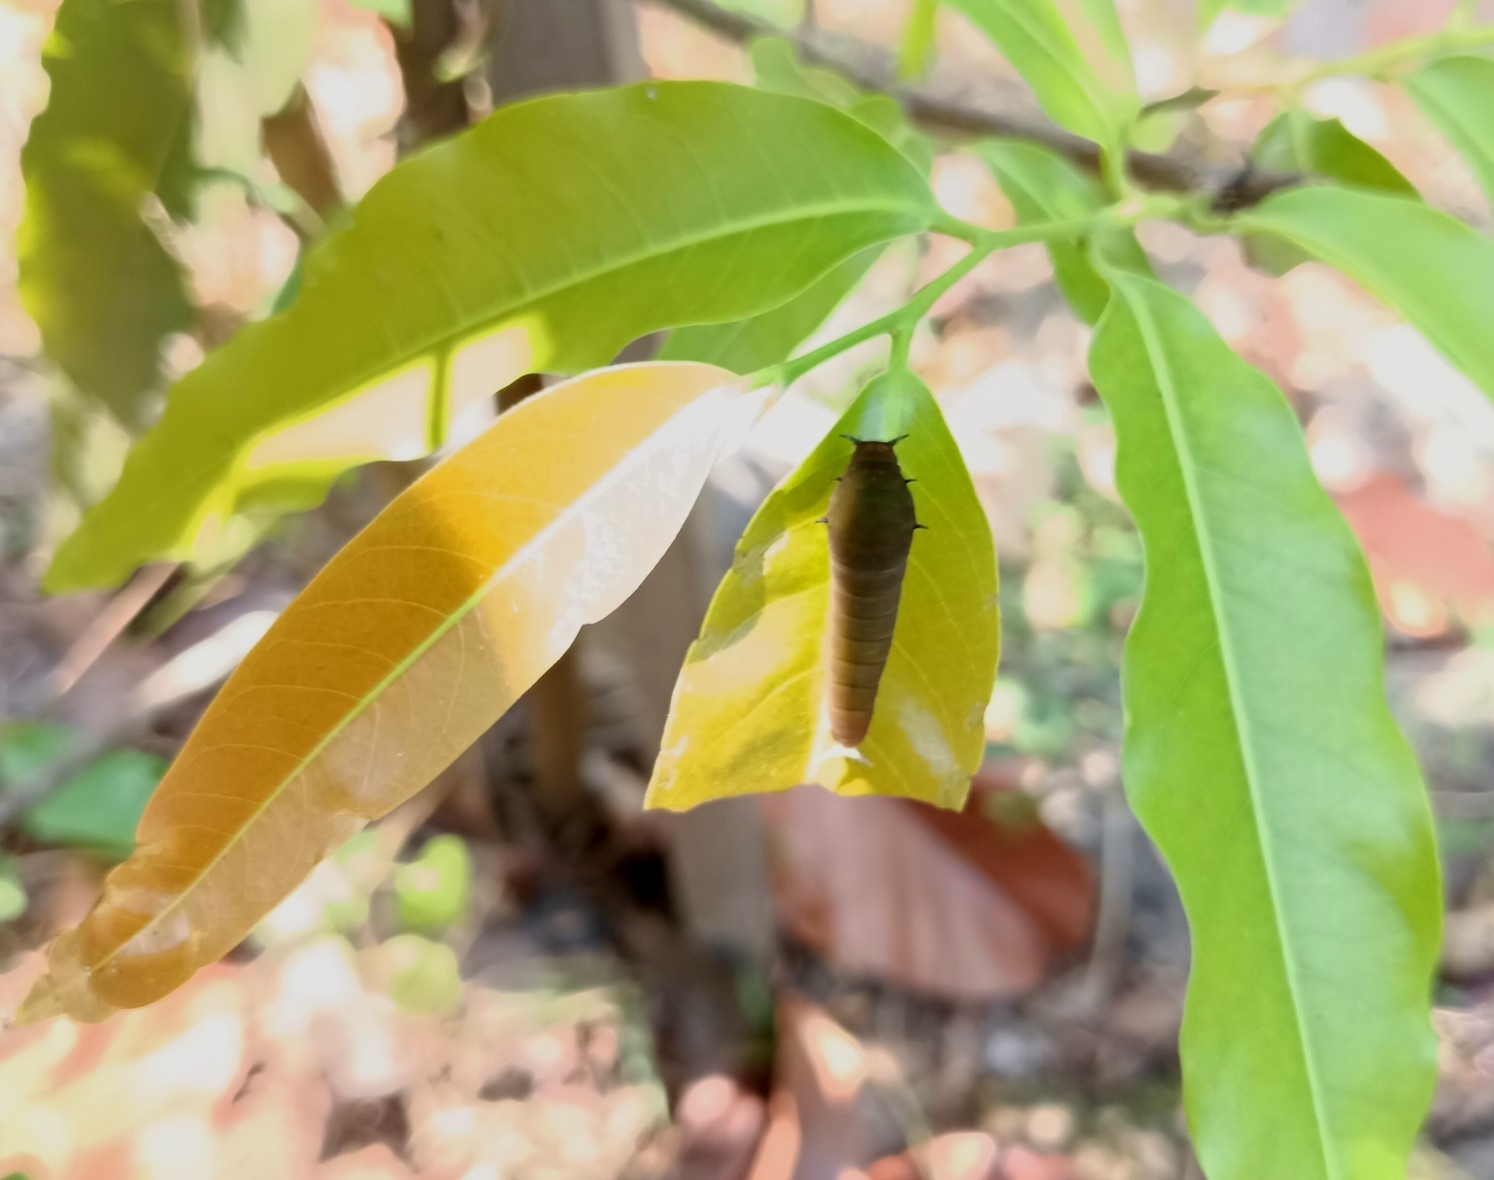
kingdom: Animalia
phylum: Arthropoda
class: Insecta
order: Lepidoptera
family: Papilionidae
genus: Graphium
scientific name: Graphium doson
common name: Common jay
